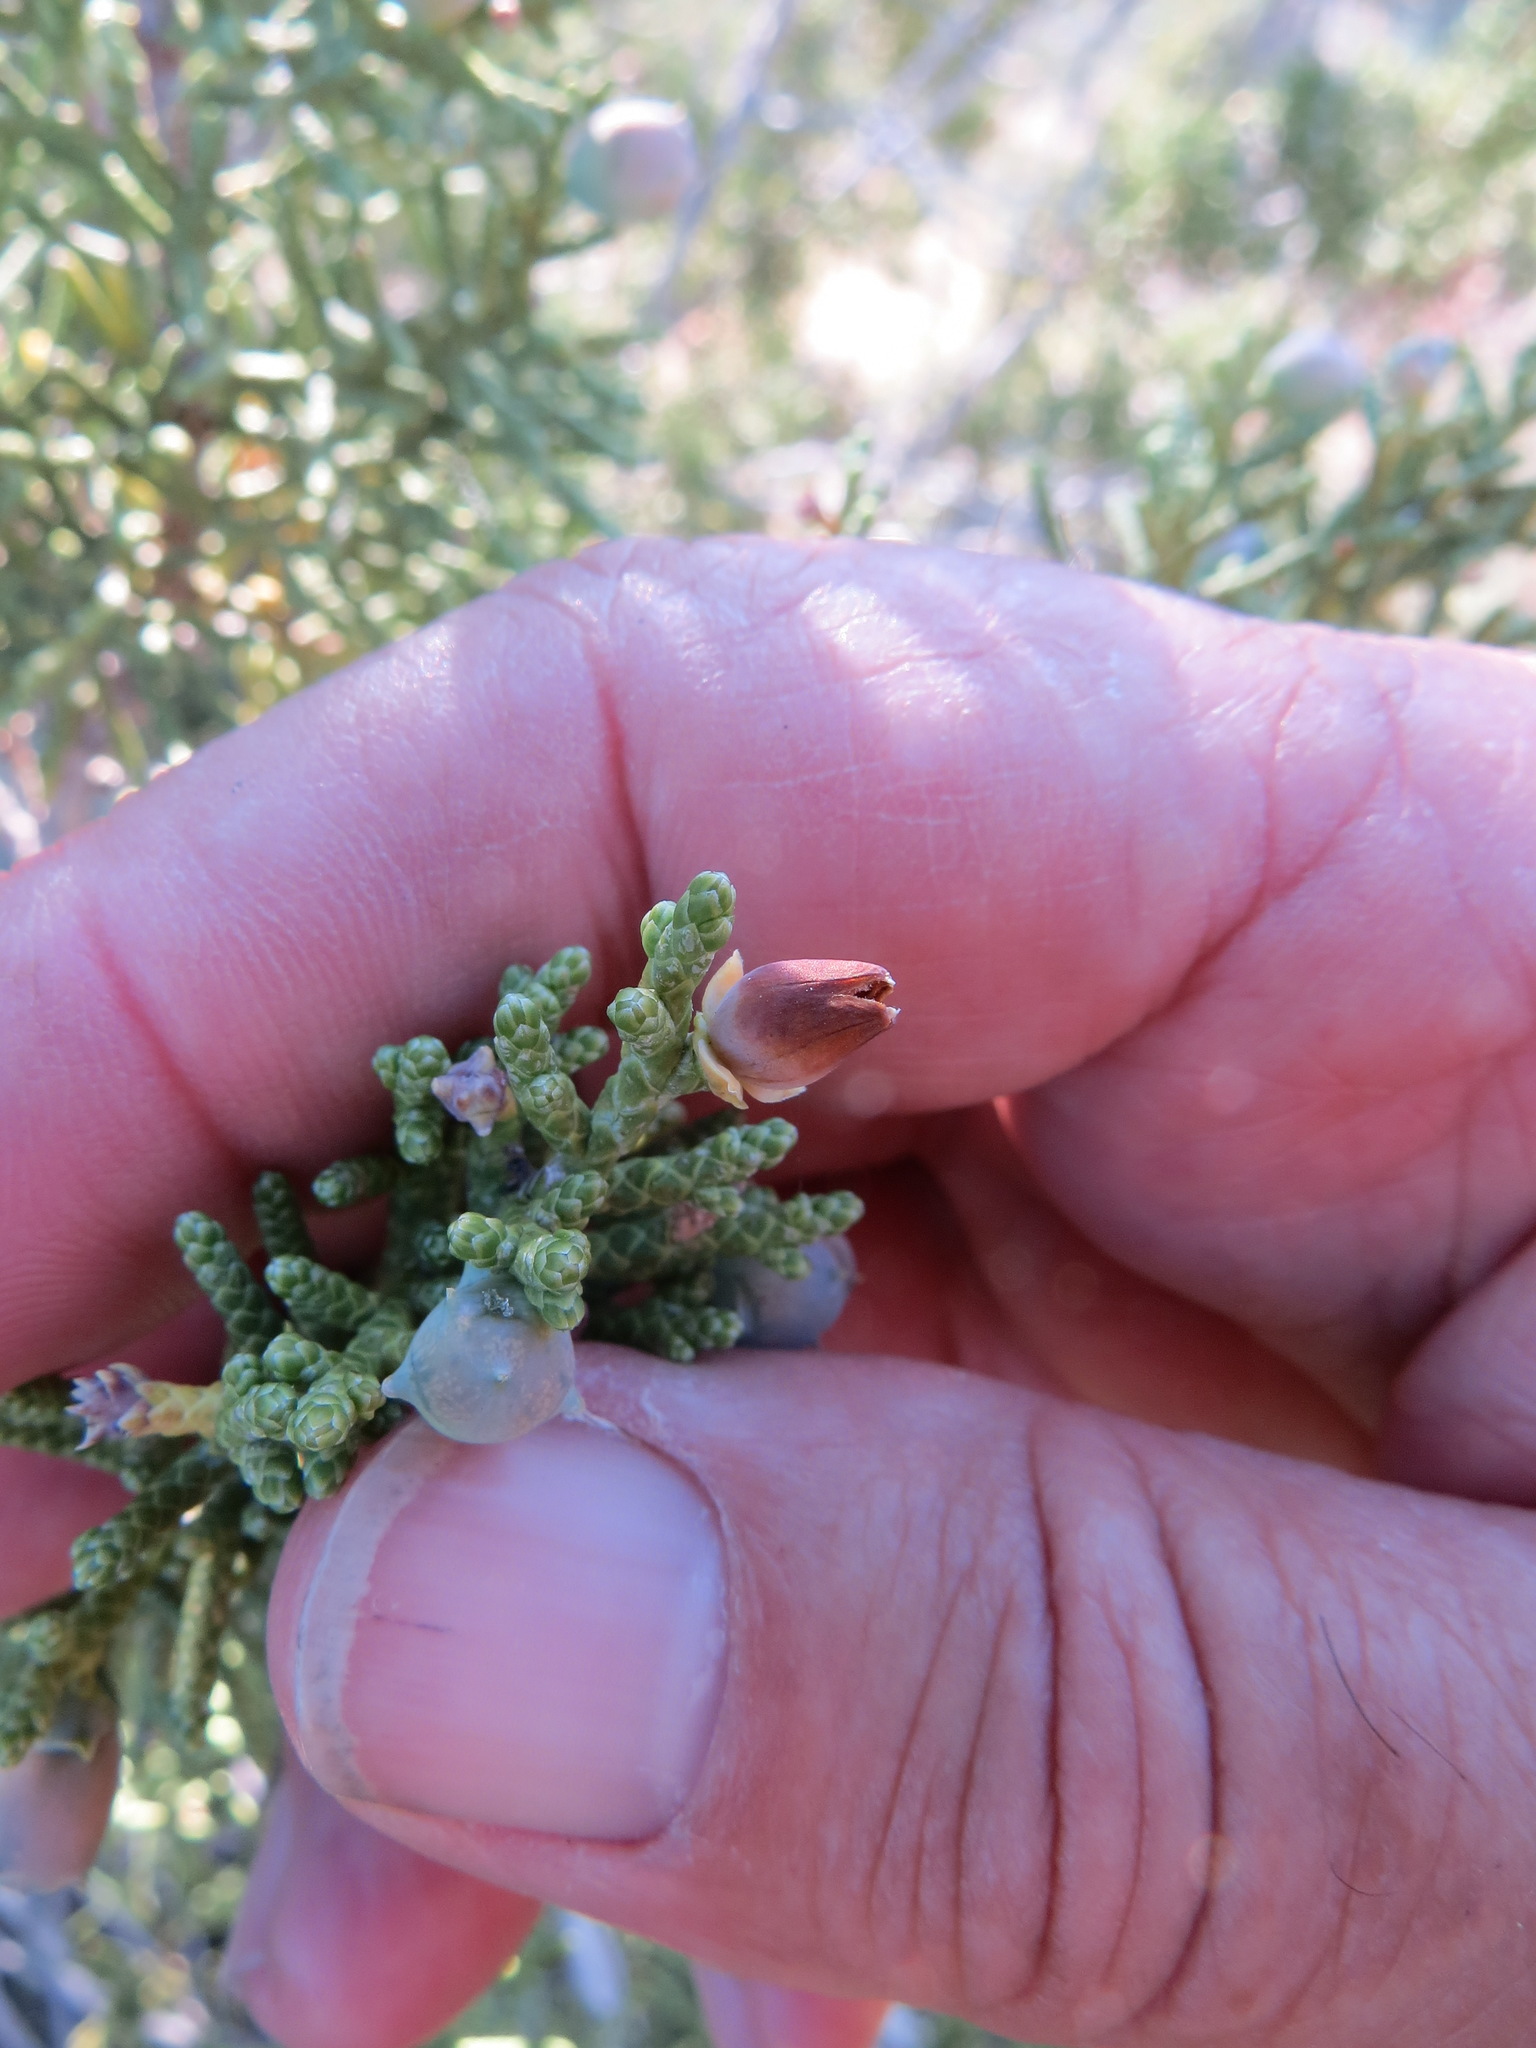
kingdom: Animalia
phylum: Arthropoda
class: Insecta
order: Diptera
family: Cecidomyiidae
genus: Walshomyia
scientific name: Walshomyia juniperina
